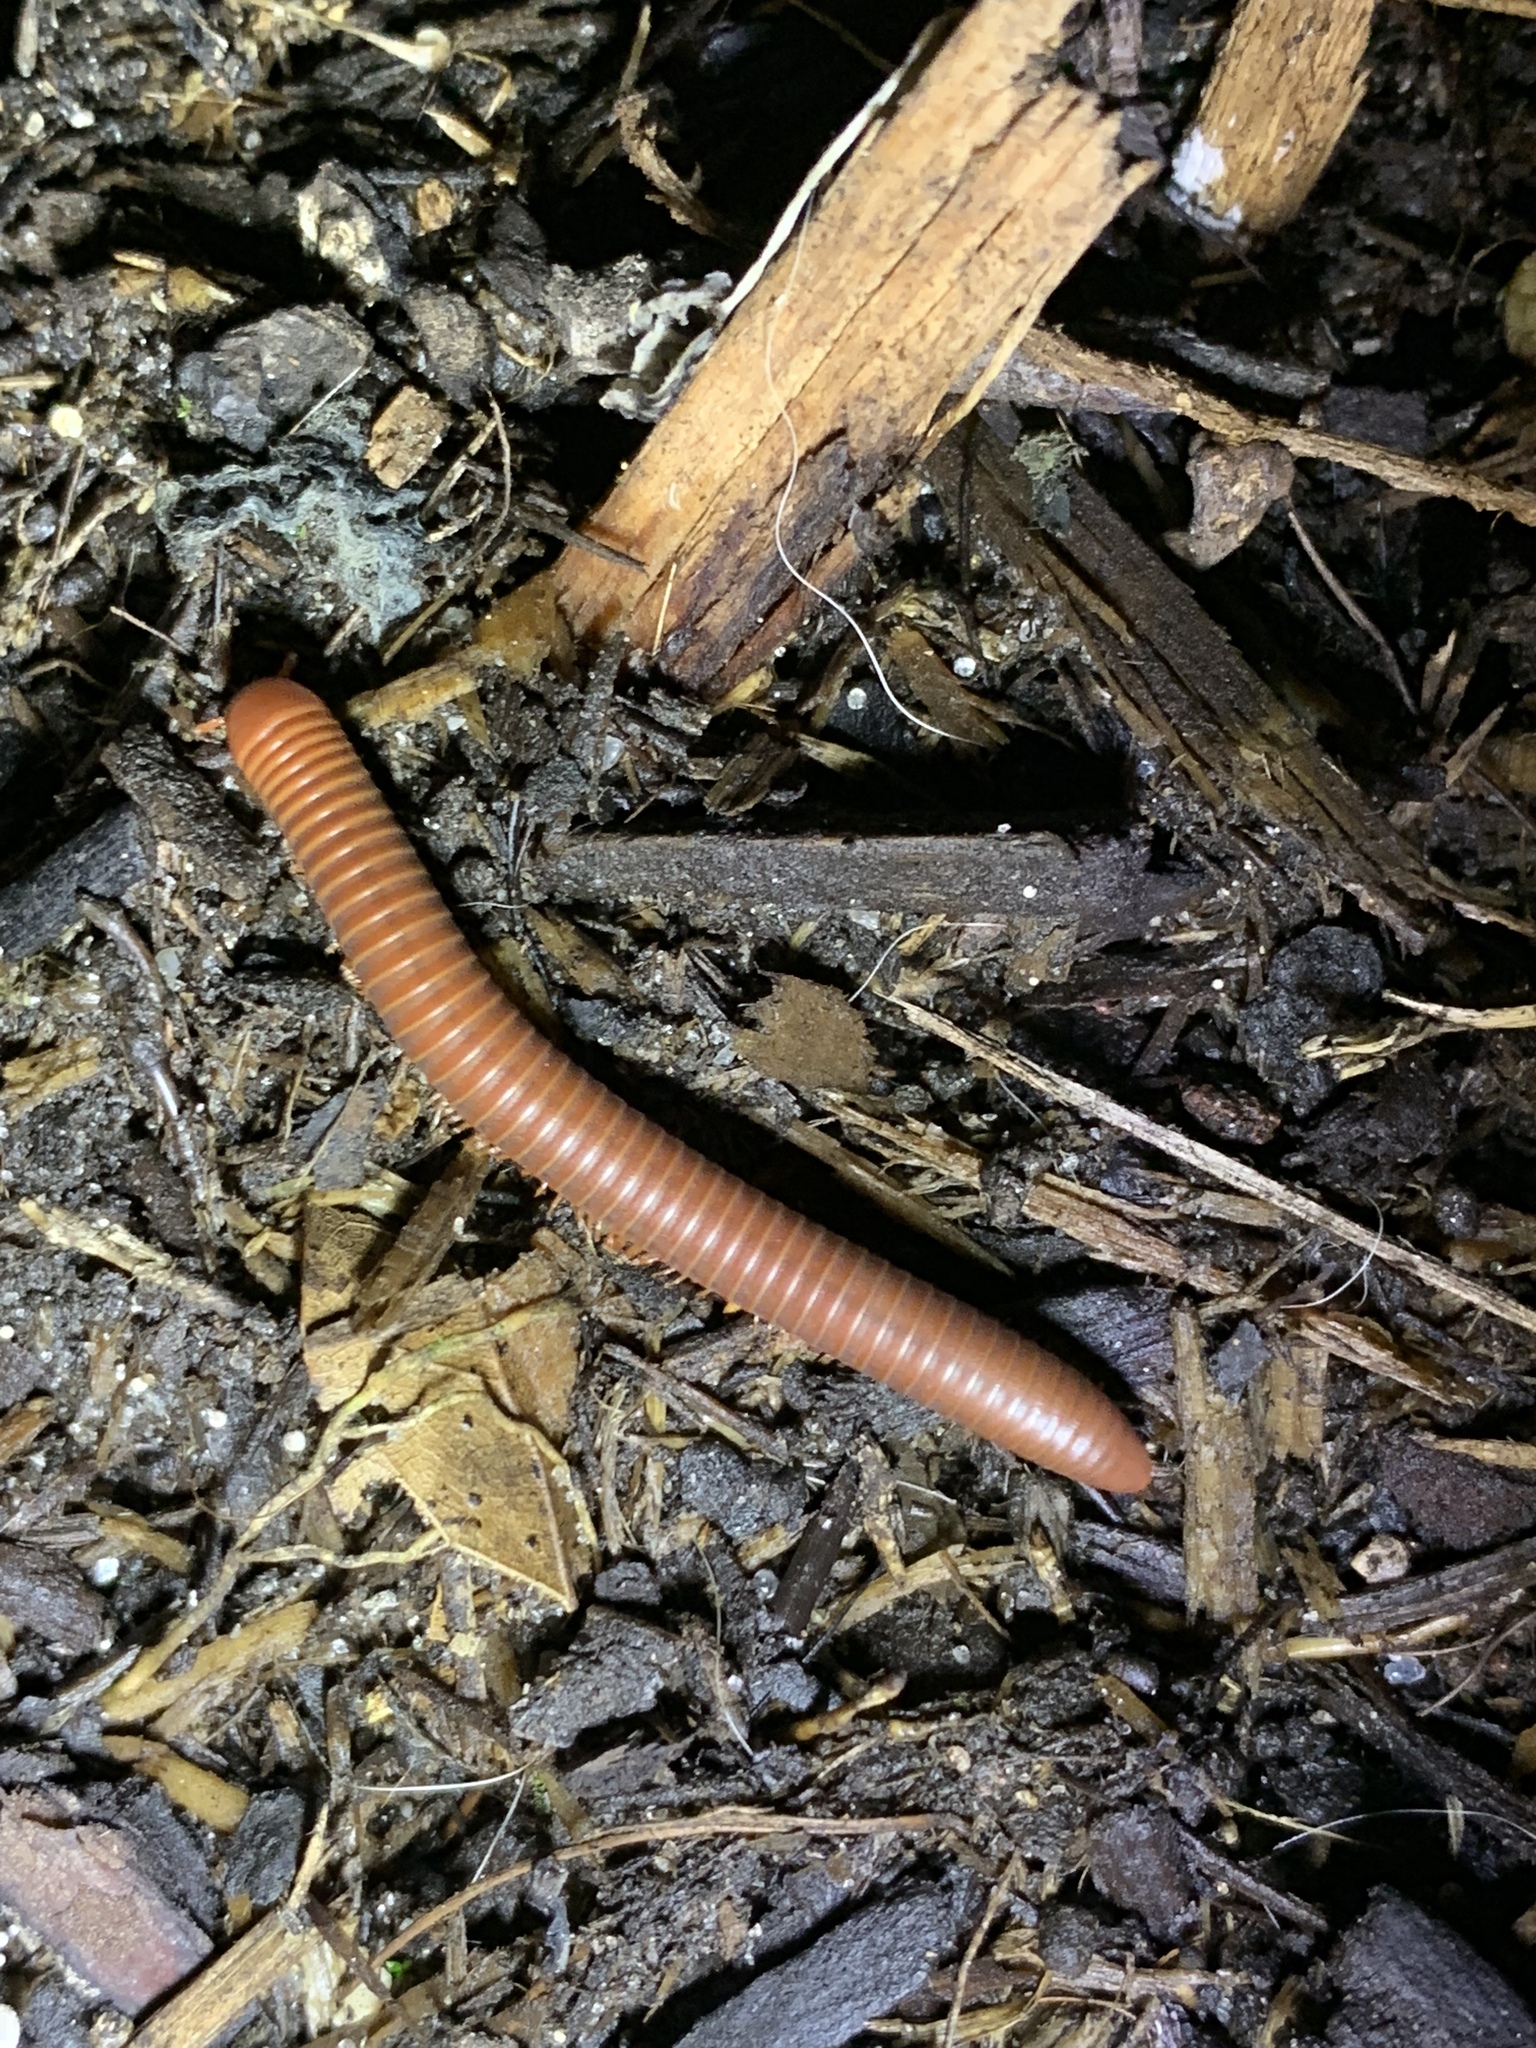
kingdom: Animalia
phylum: Arthropoda
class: Diplopoda
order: Spirobolida
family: Pachybolidae
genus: Trigoniulus
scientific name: Trigoniulus corallinus
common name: Millipede
